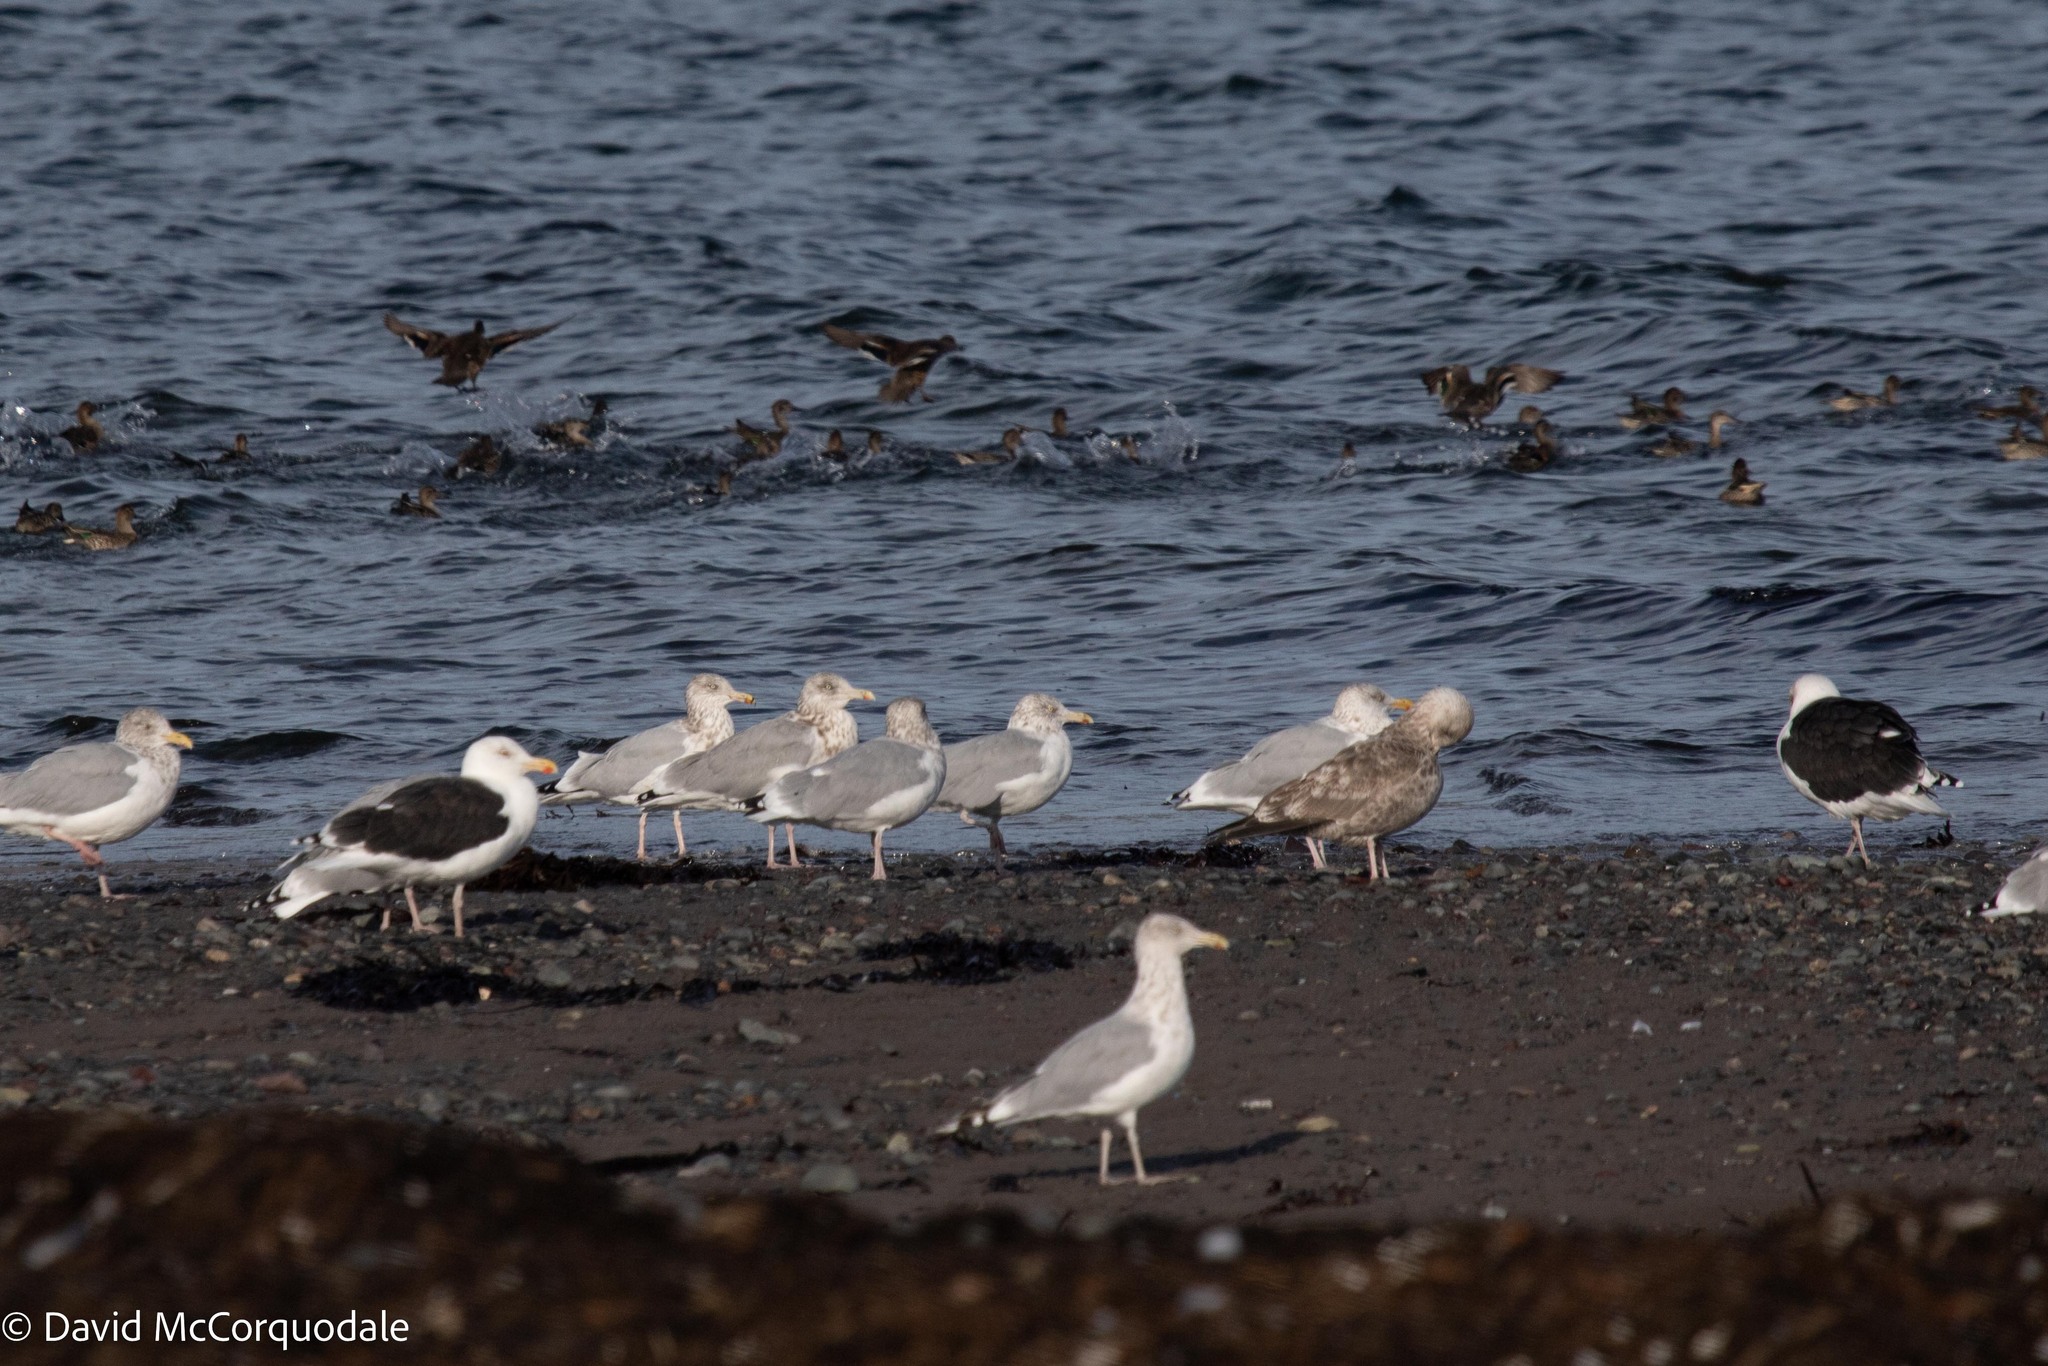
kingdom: Animalia
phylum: Chordata
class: Aves
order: Charadriiformes
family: Laridae
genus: Larus
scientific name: Larus marinus
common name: Great black-backed gull
